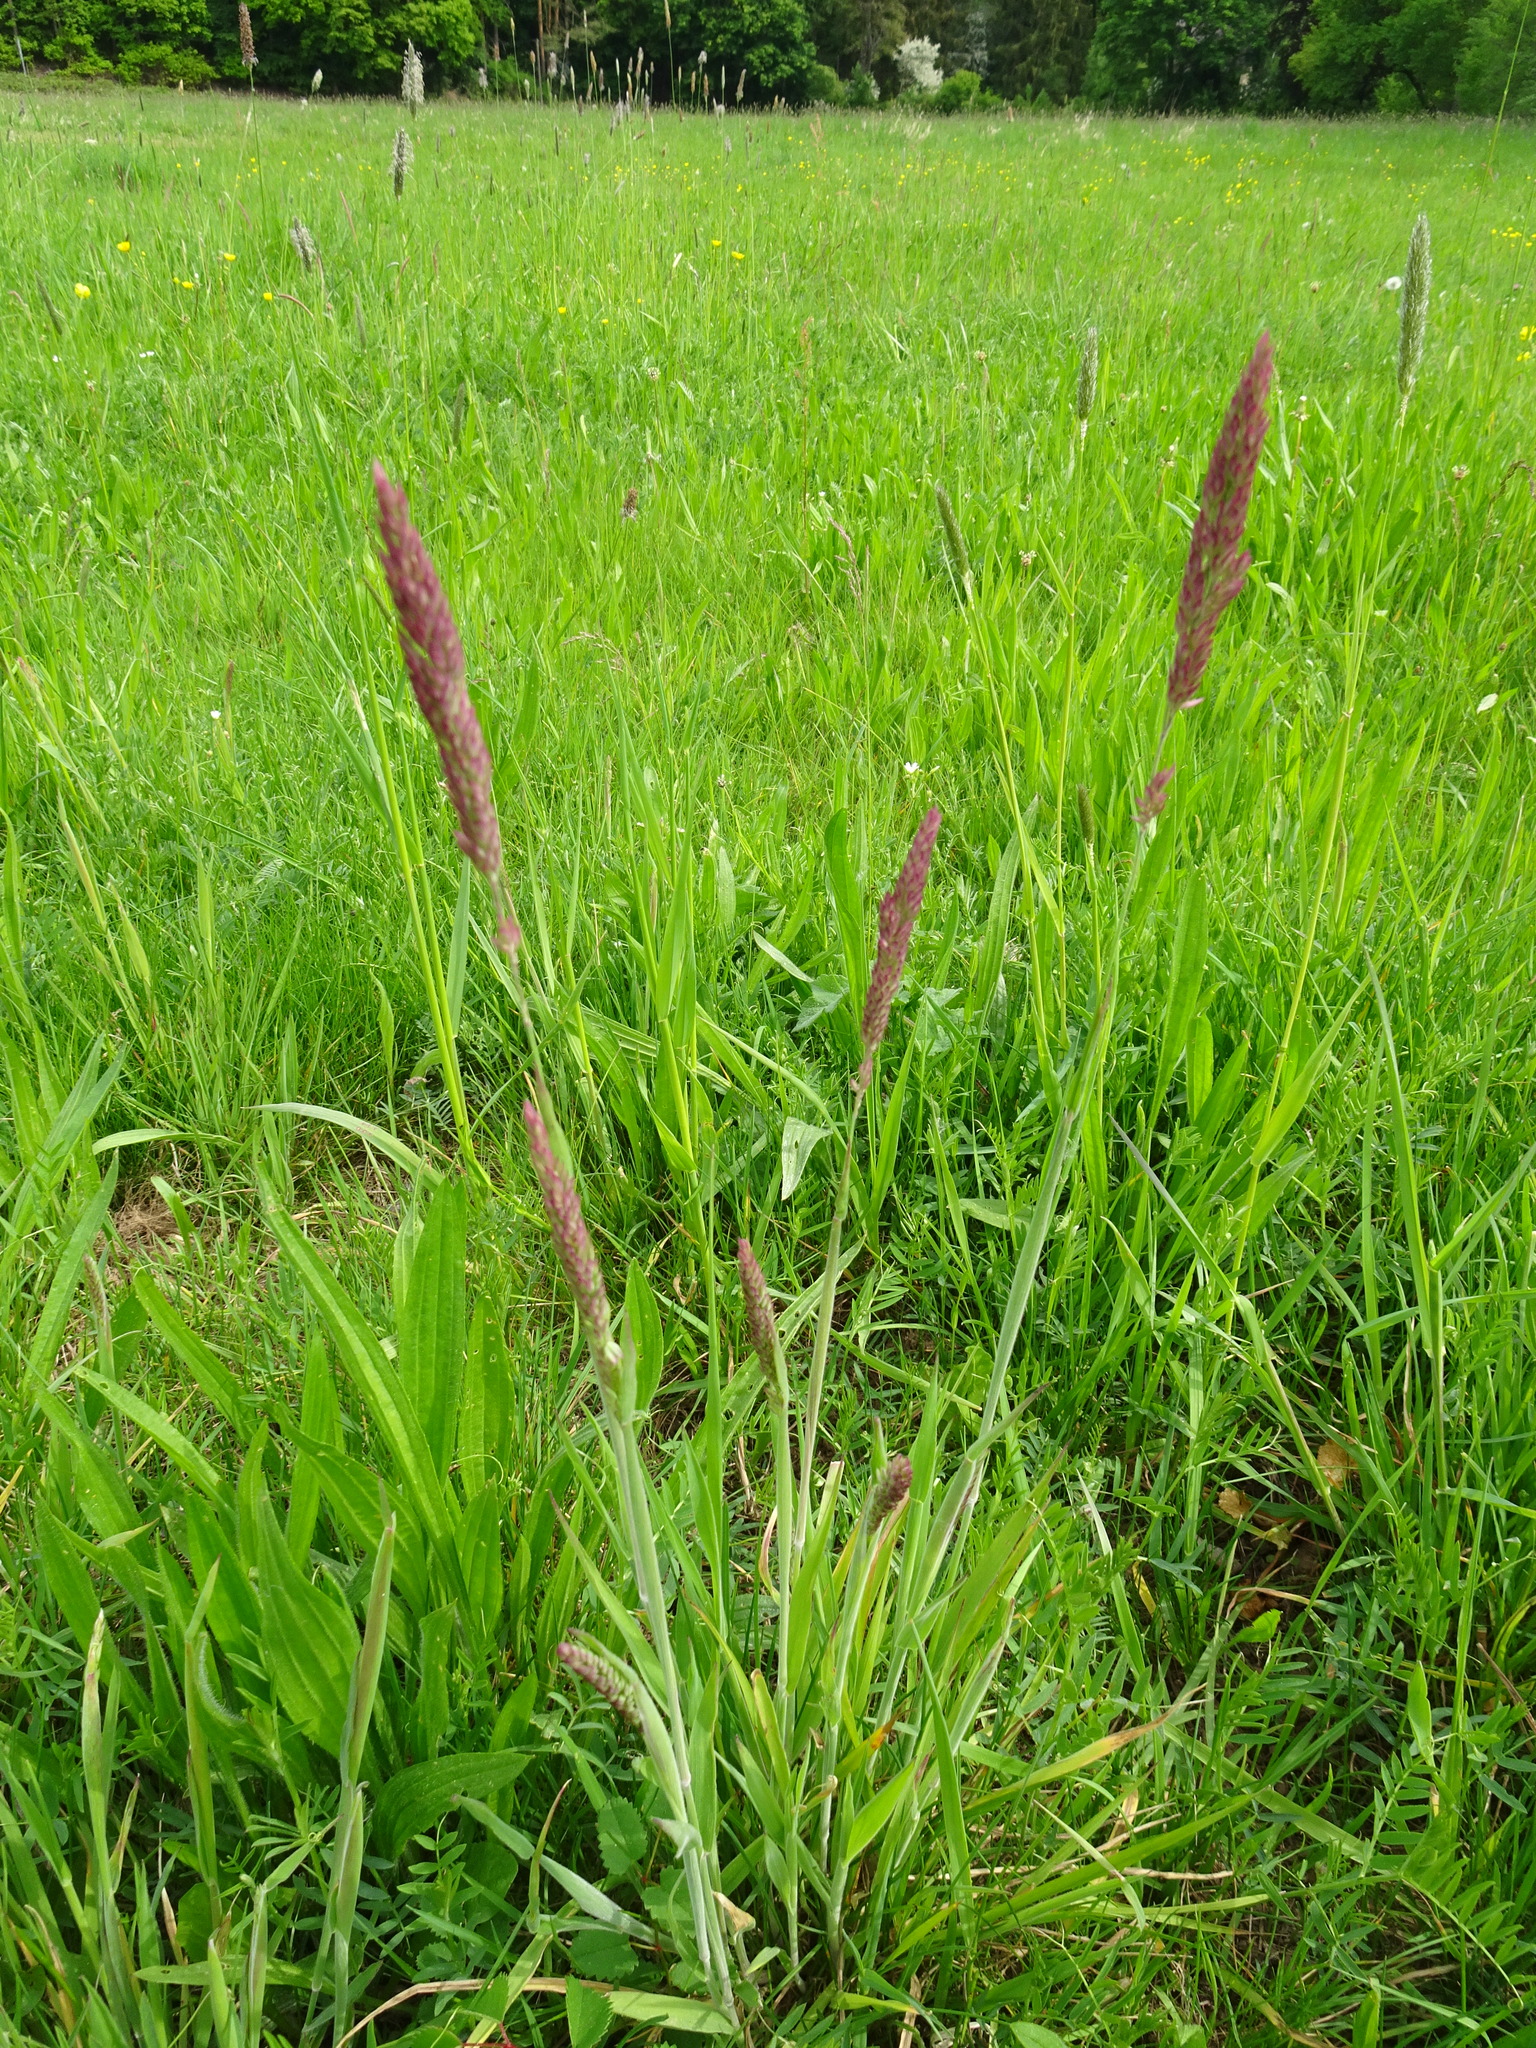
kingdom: Plantae
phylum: Tracheophyta
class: Liliopsida
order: Poales
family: Poaceae
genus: Holcus
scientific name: Holcus lanatus
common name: Yorkshire-fog
